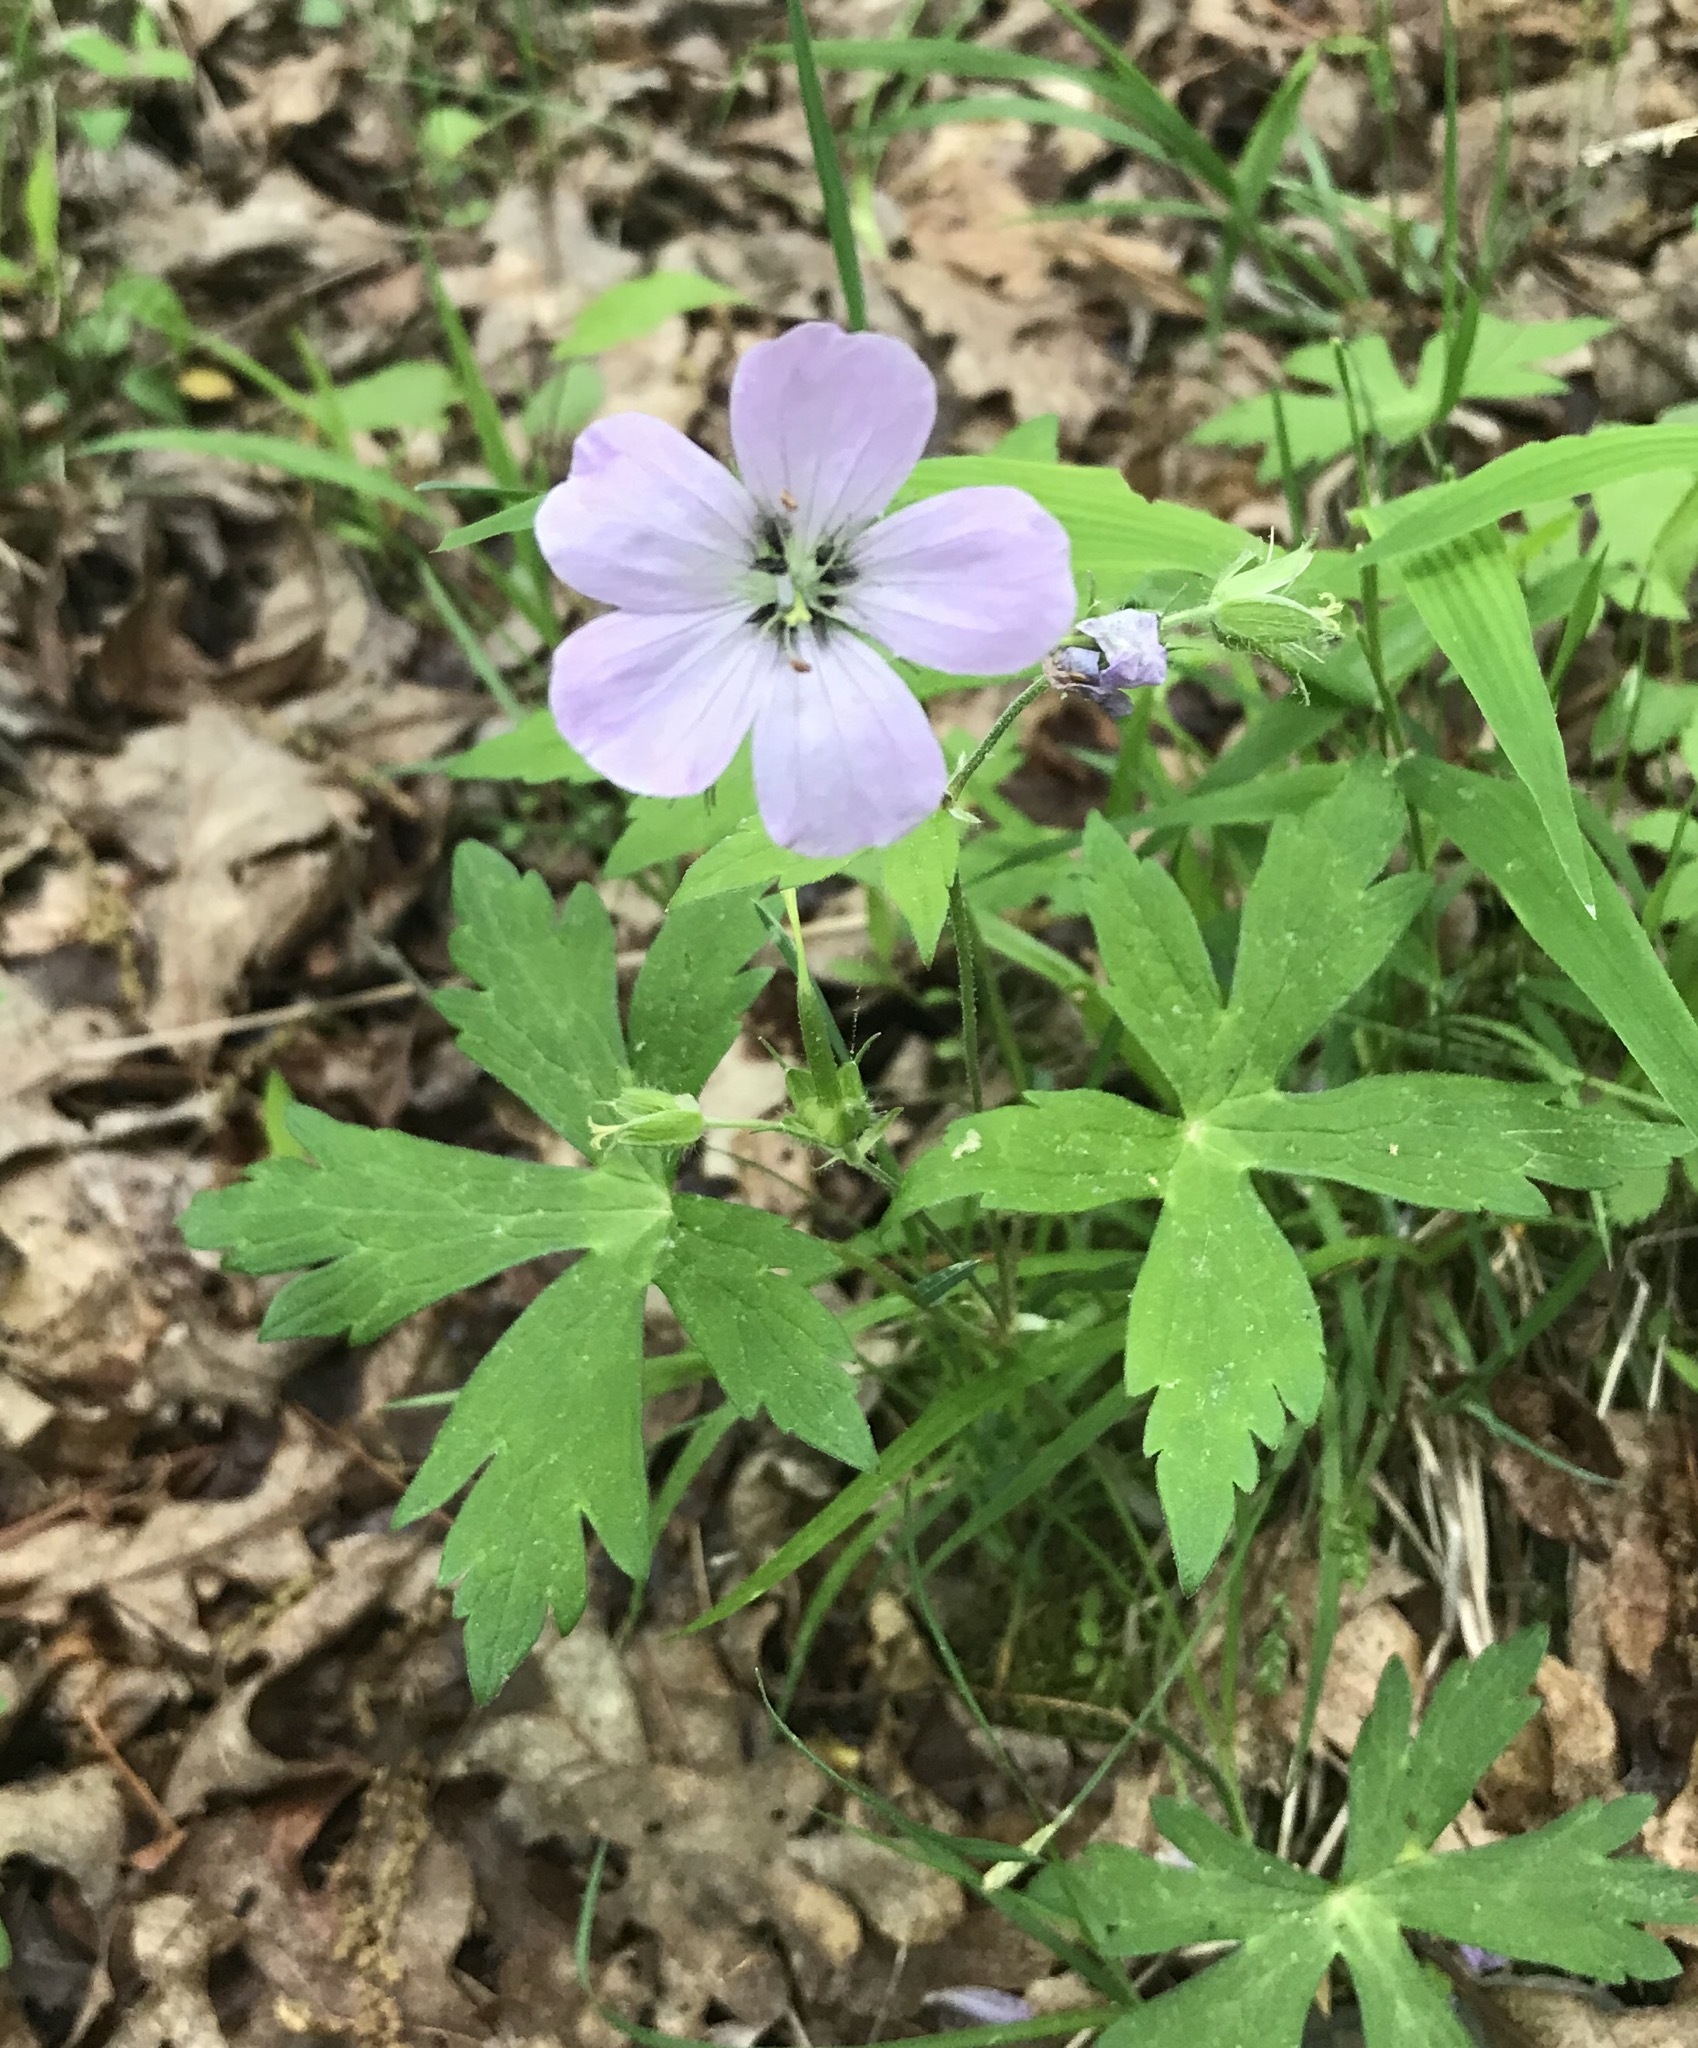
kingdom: Plantae
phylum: Tracheophyta
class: Magnoliopsida
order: Geraniales
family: Geraniaceae
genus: Geranium
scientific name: Geranium maculatum
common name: Spotted geranium
